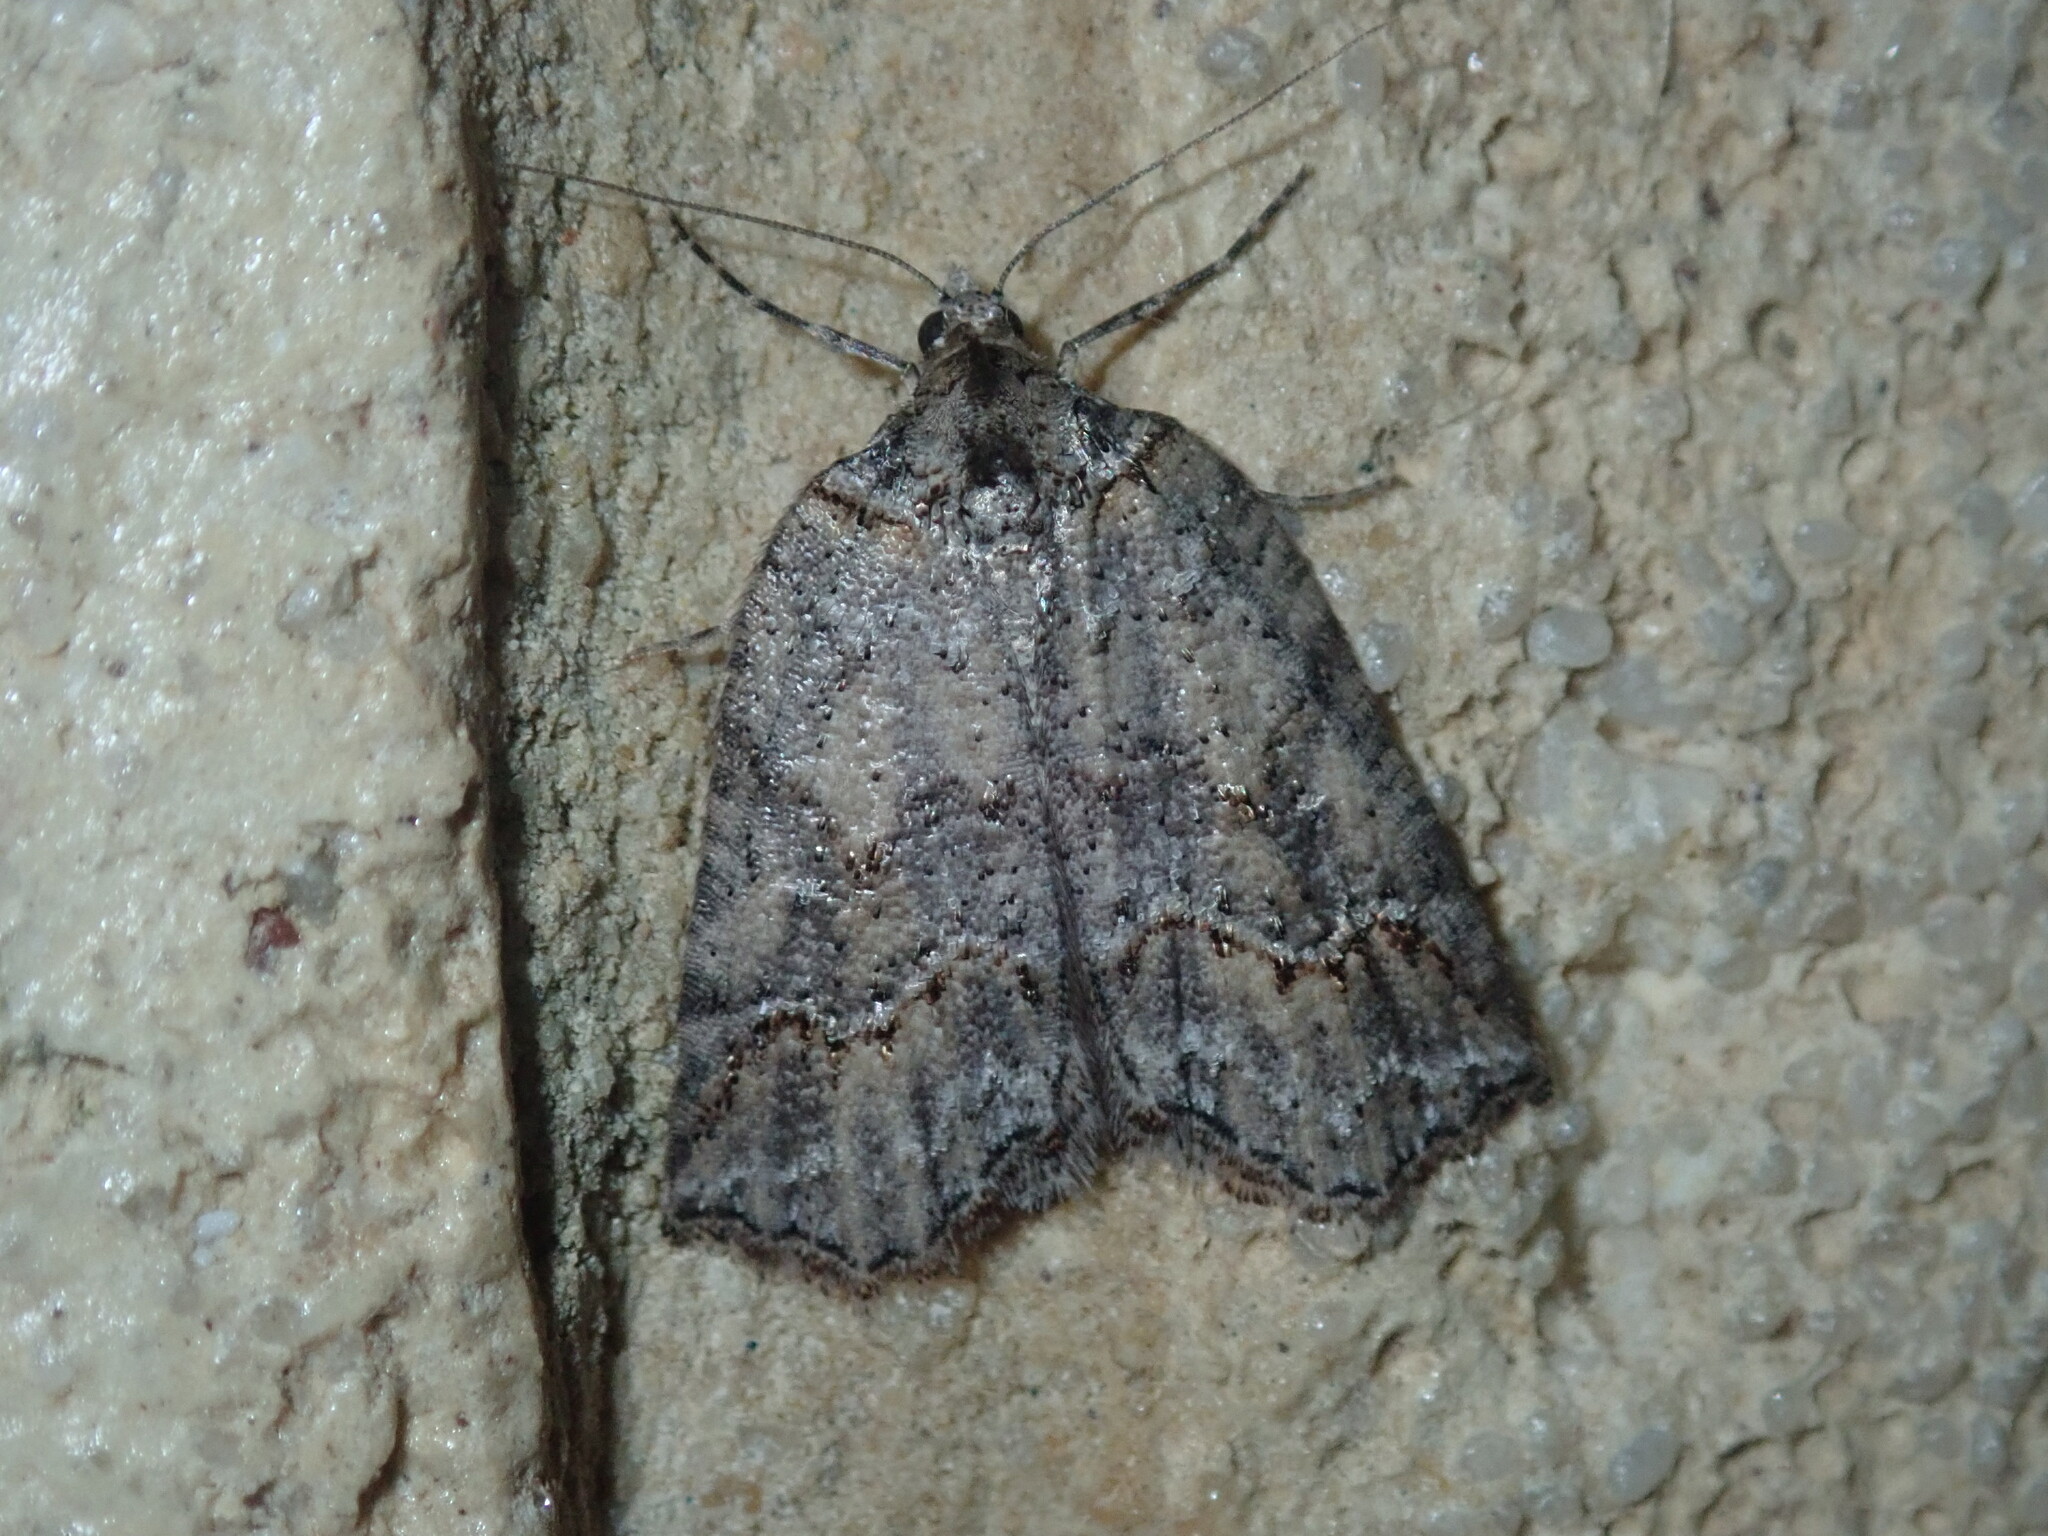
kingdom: Animalia
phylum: Arthropoda
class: Insecta
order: Lepidoptera
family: Geometridae
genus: Plesiolaea
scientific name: Plesiolaea promacha
